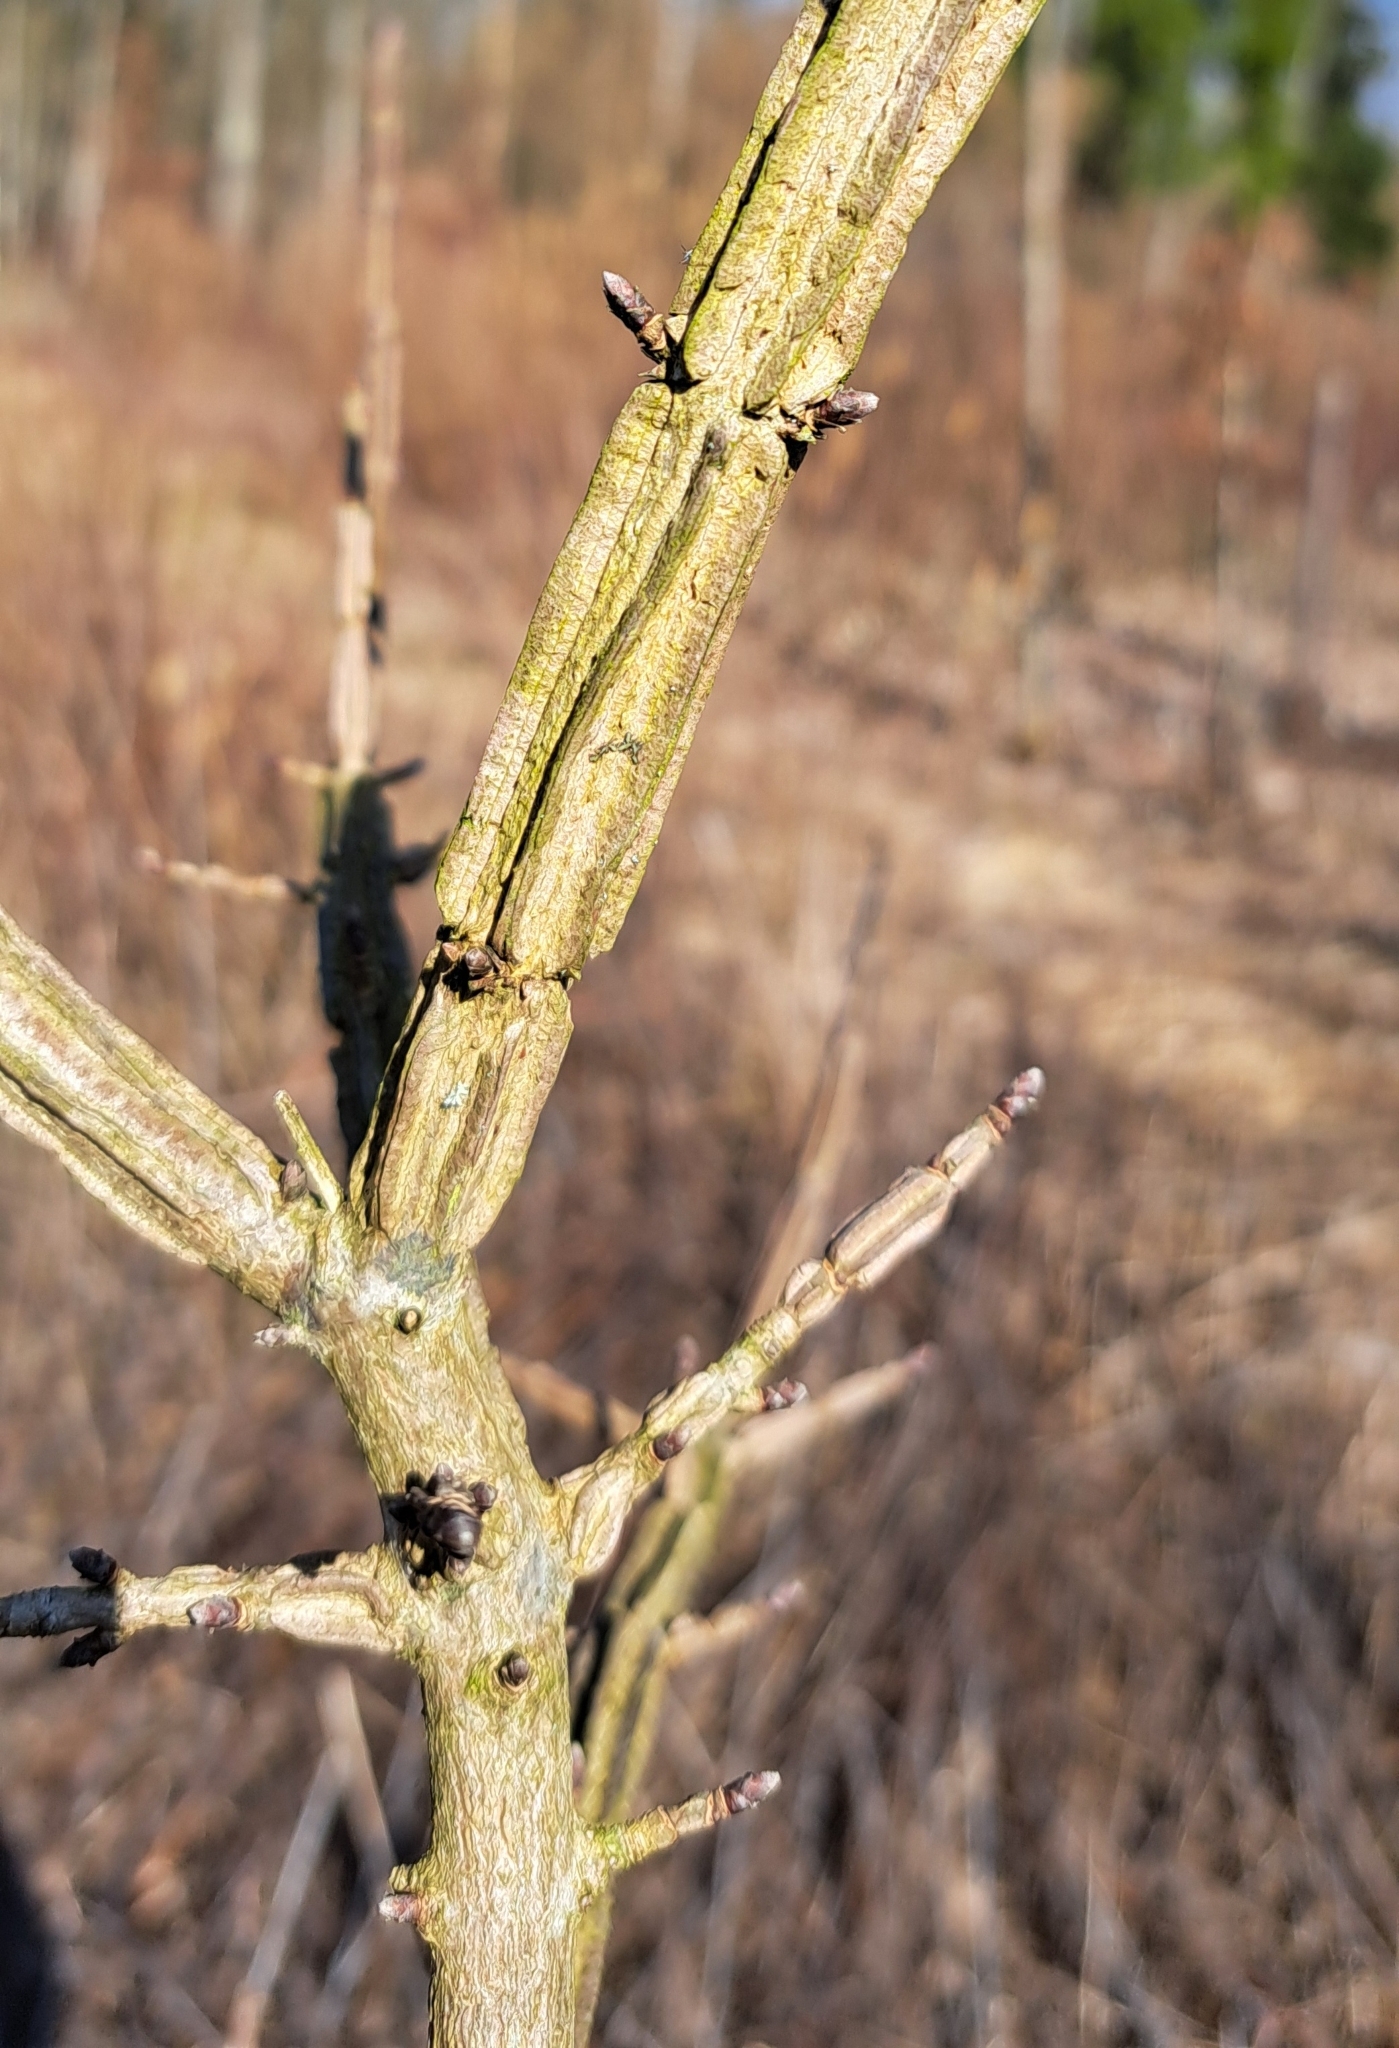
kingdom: Plantae
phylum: Tracheophyta
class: Magnoliopsida
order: Sapindales
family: Sapindaceae
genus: Acer
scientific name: Acer campestre
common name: Field maple
